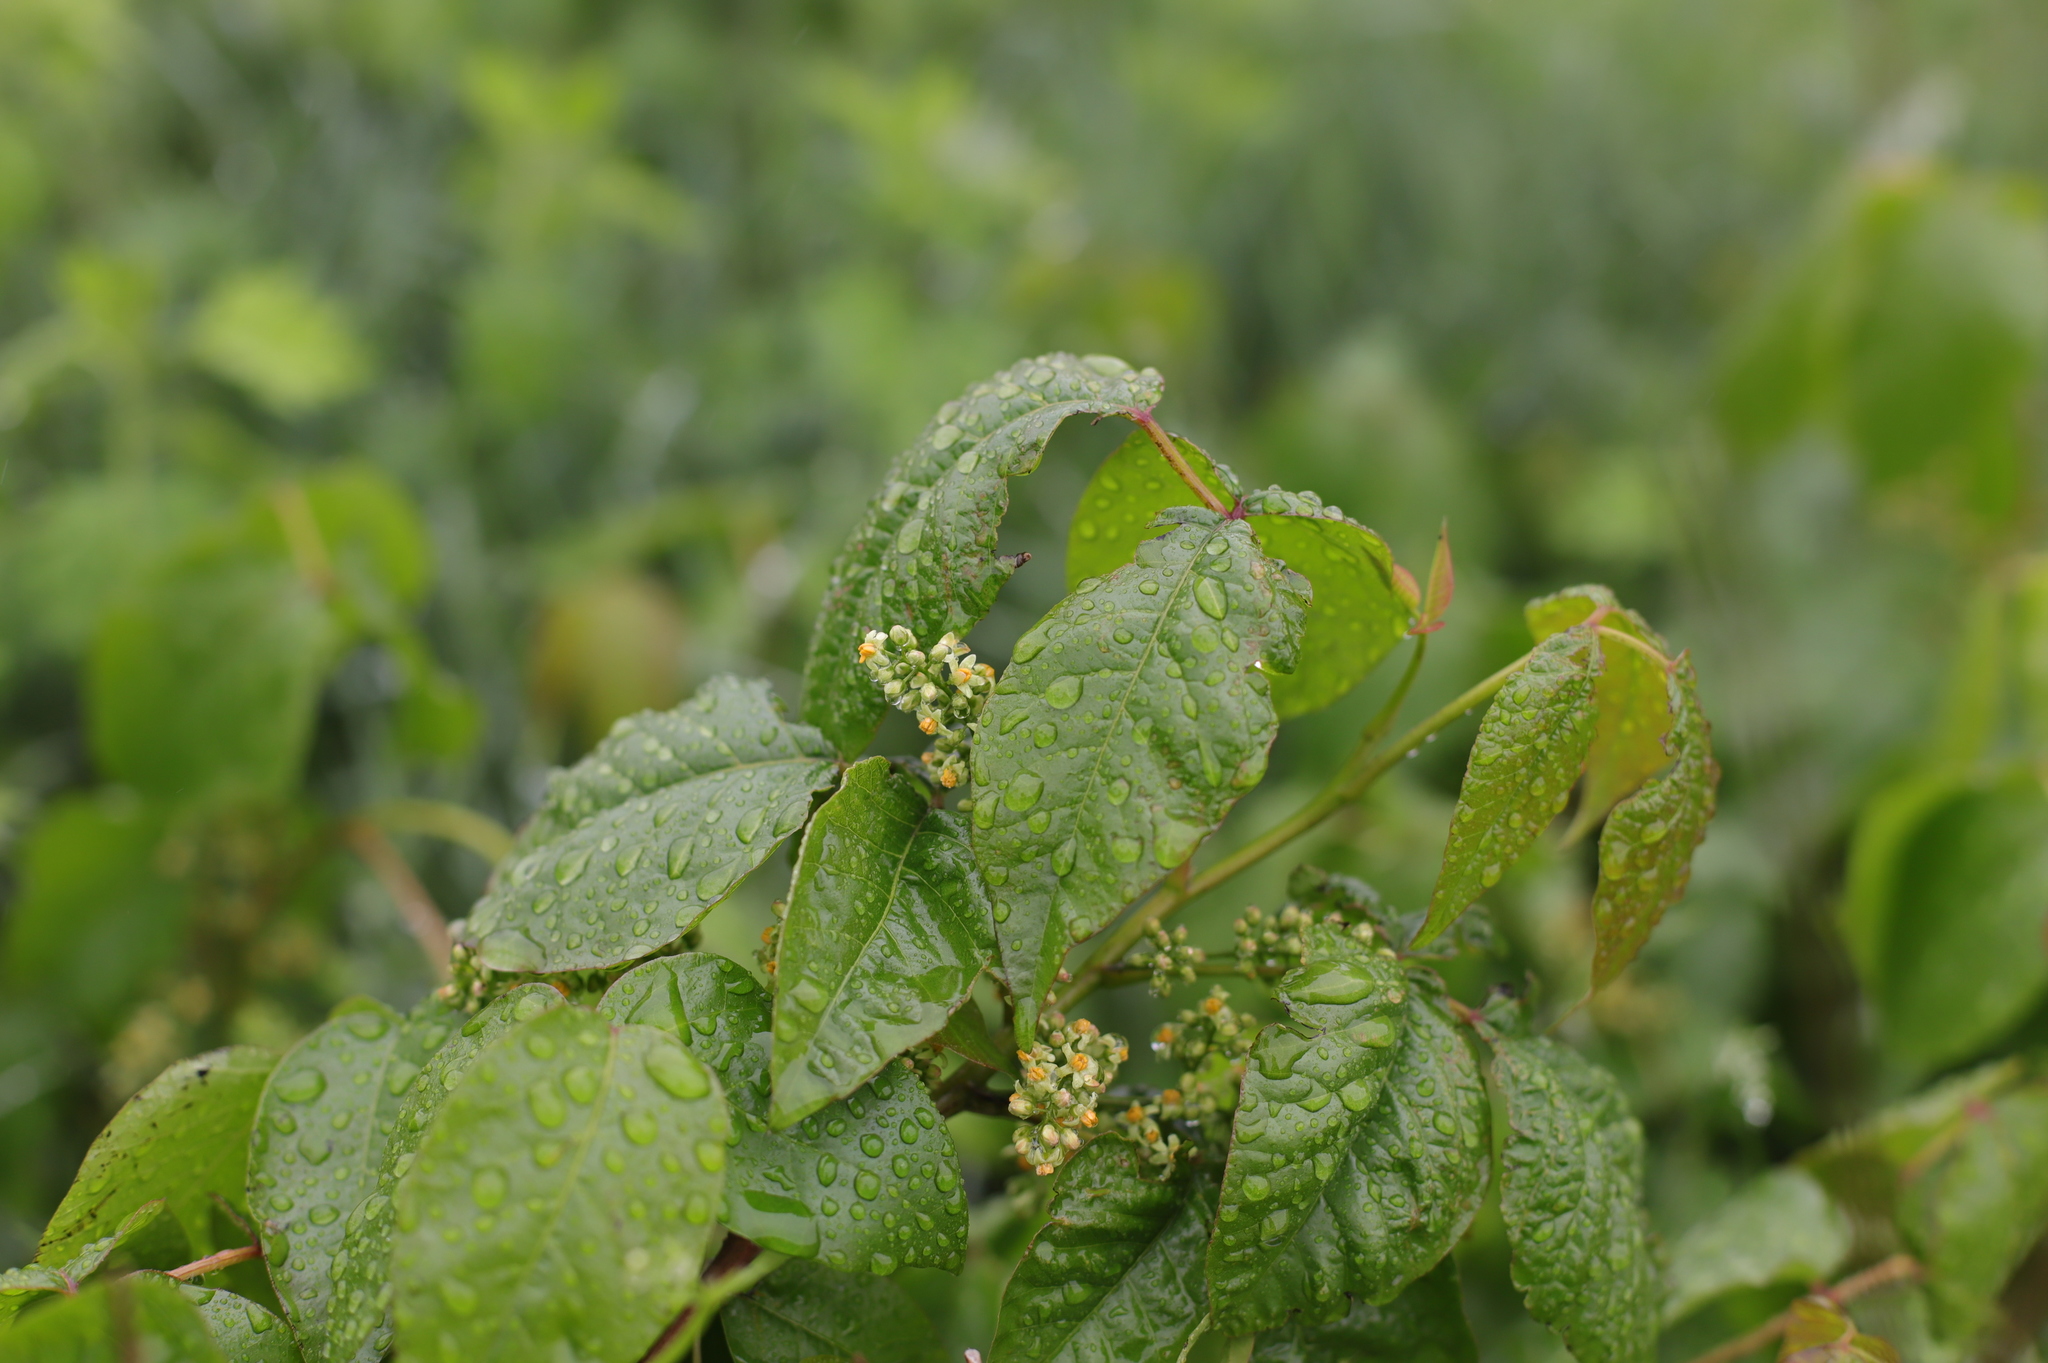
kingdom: Plantae
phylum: Tracheophyta
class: Magnoliopsida
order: Sapindales
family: Anacardiaceae
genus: Toxicodendron
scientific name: Toxicodendron radicans
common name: Poison ivy
